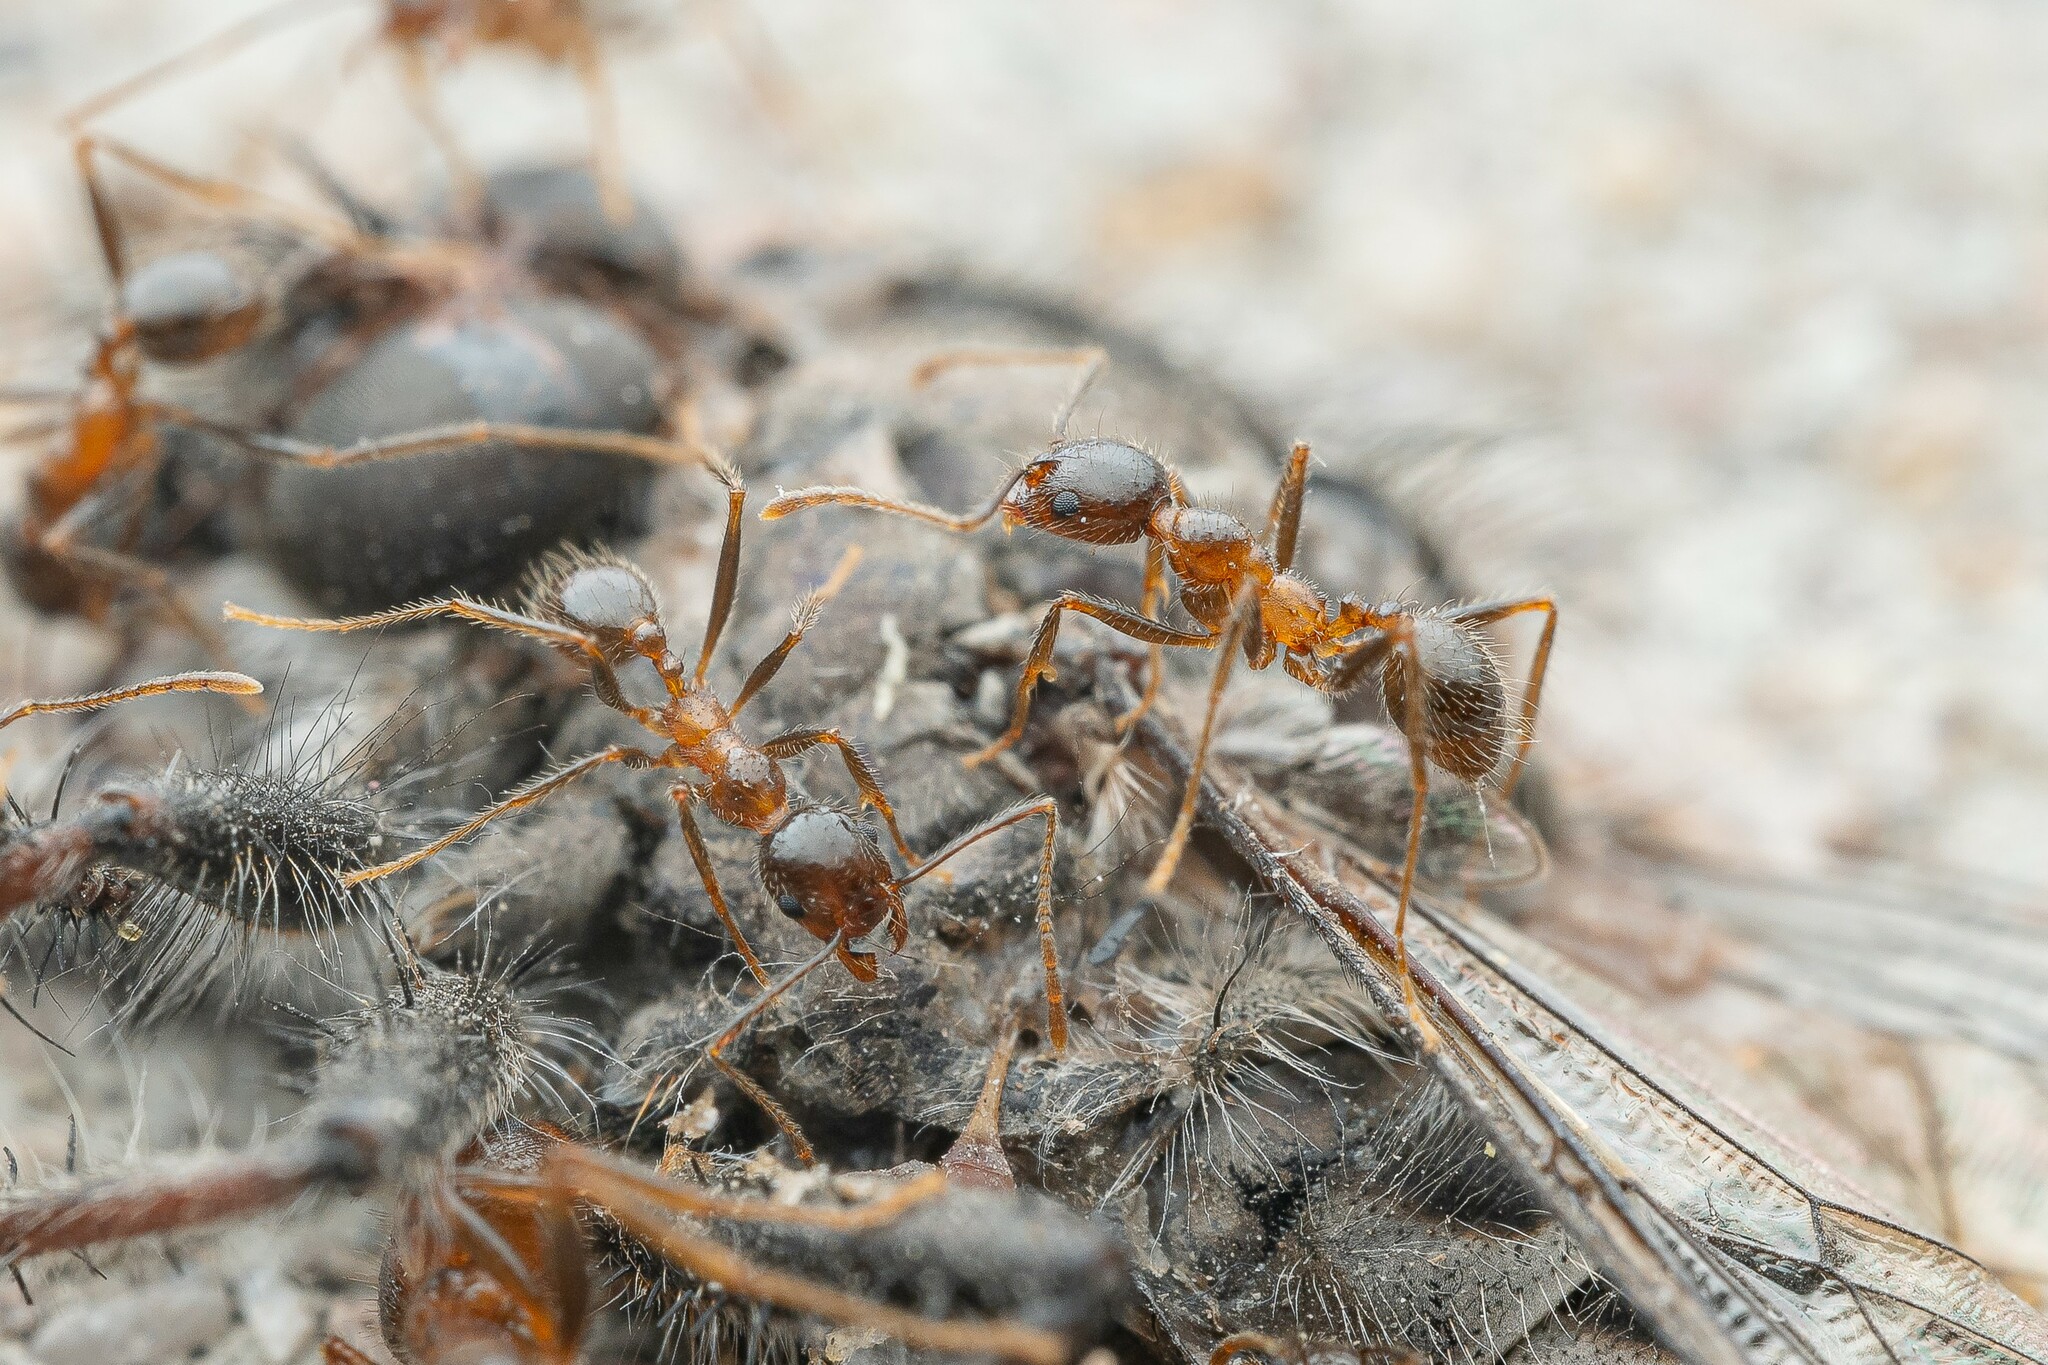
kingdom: Animalia
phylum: Arthropoda
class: Insecta
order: Hymenoptera
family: Formicidae
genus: Pheidole
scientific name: Pheidole obtusospinosa
